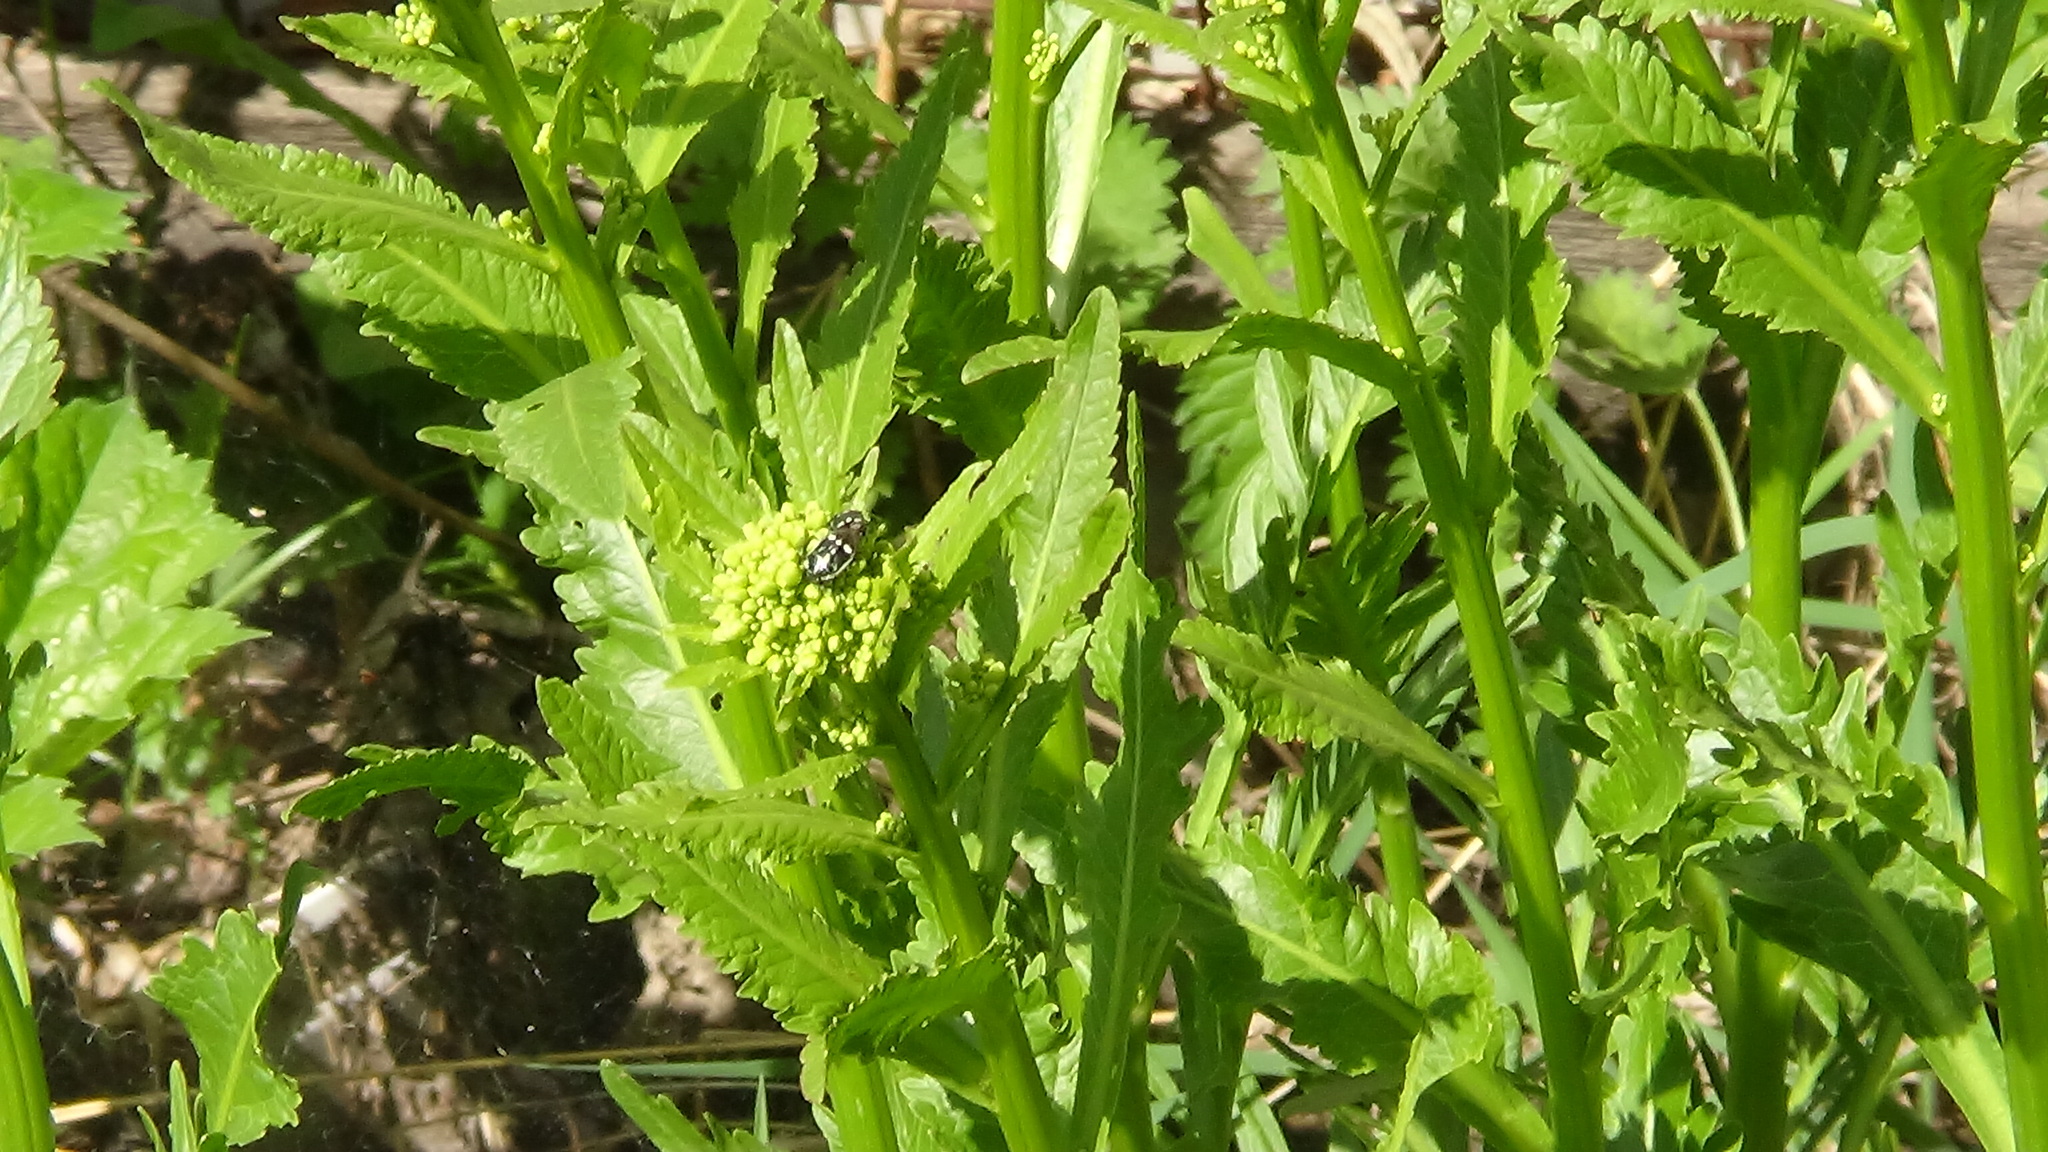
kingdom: Plantae
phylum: Tracheophyta
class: Magnoliopsida
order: Brassicales
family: Brassicaceae
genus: Armoracia
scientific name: Armoracia rusticana
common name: Horseradish
